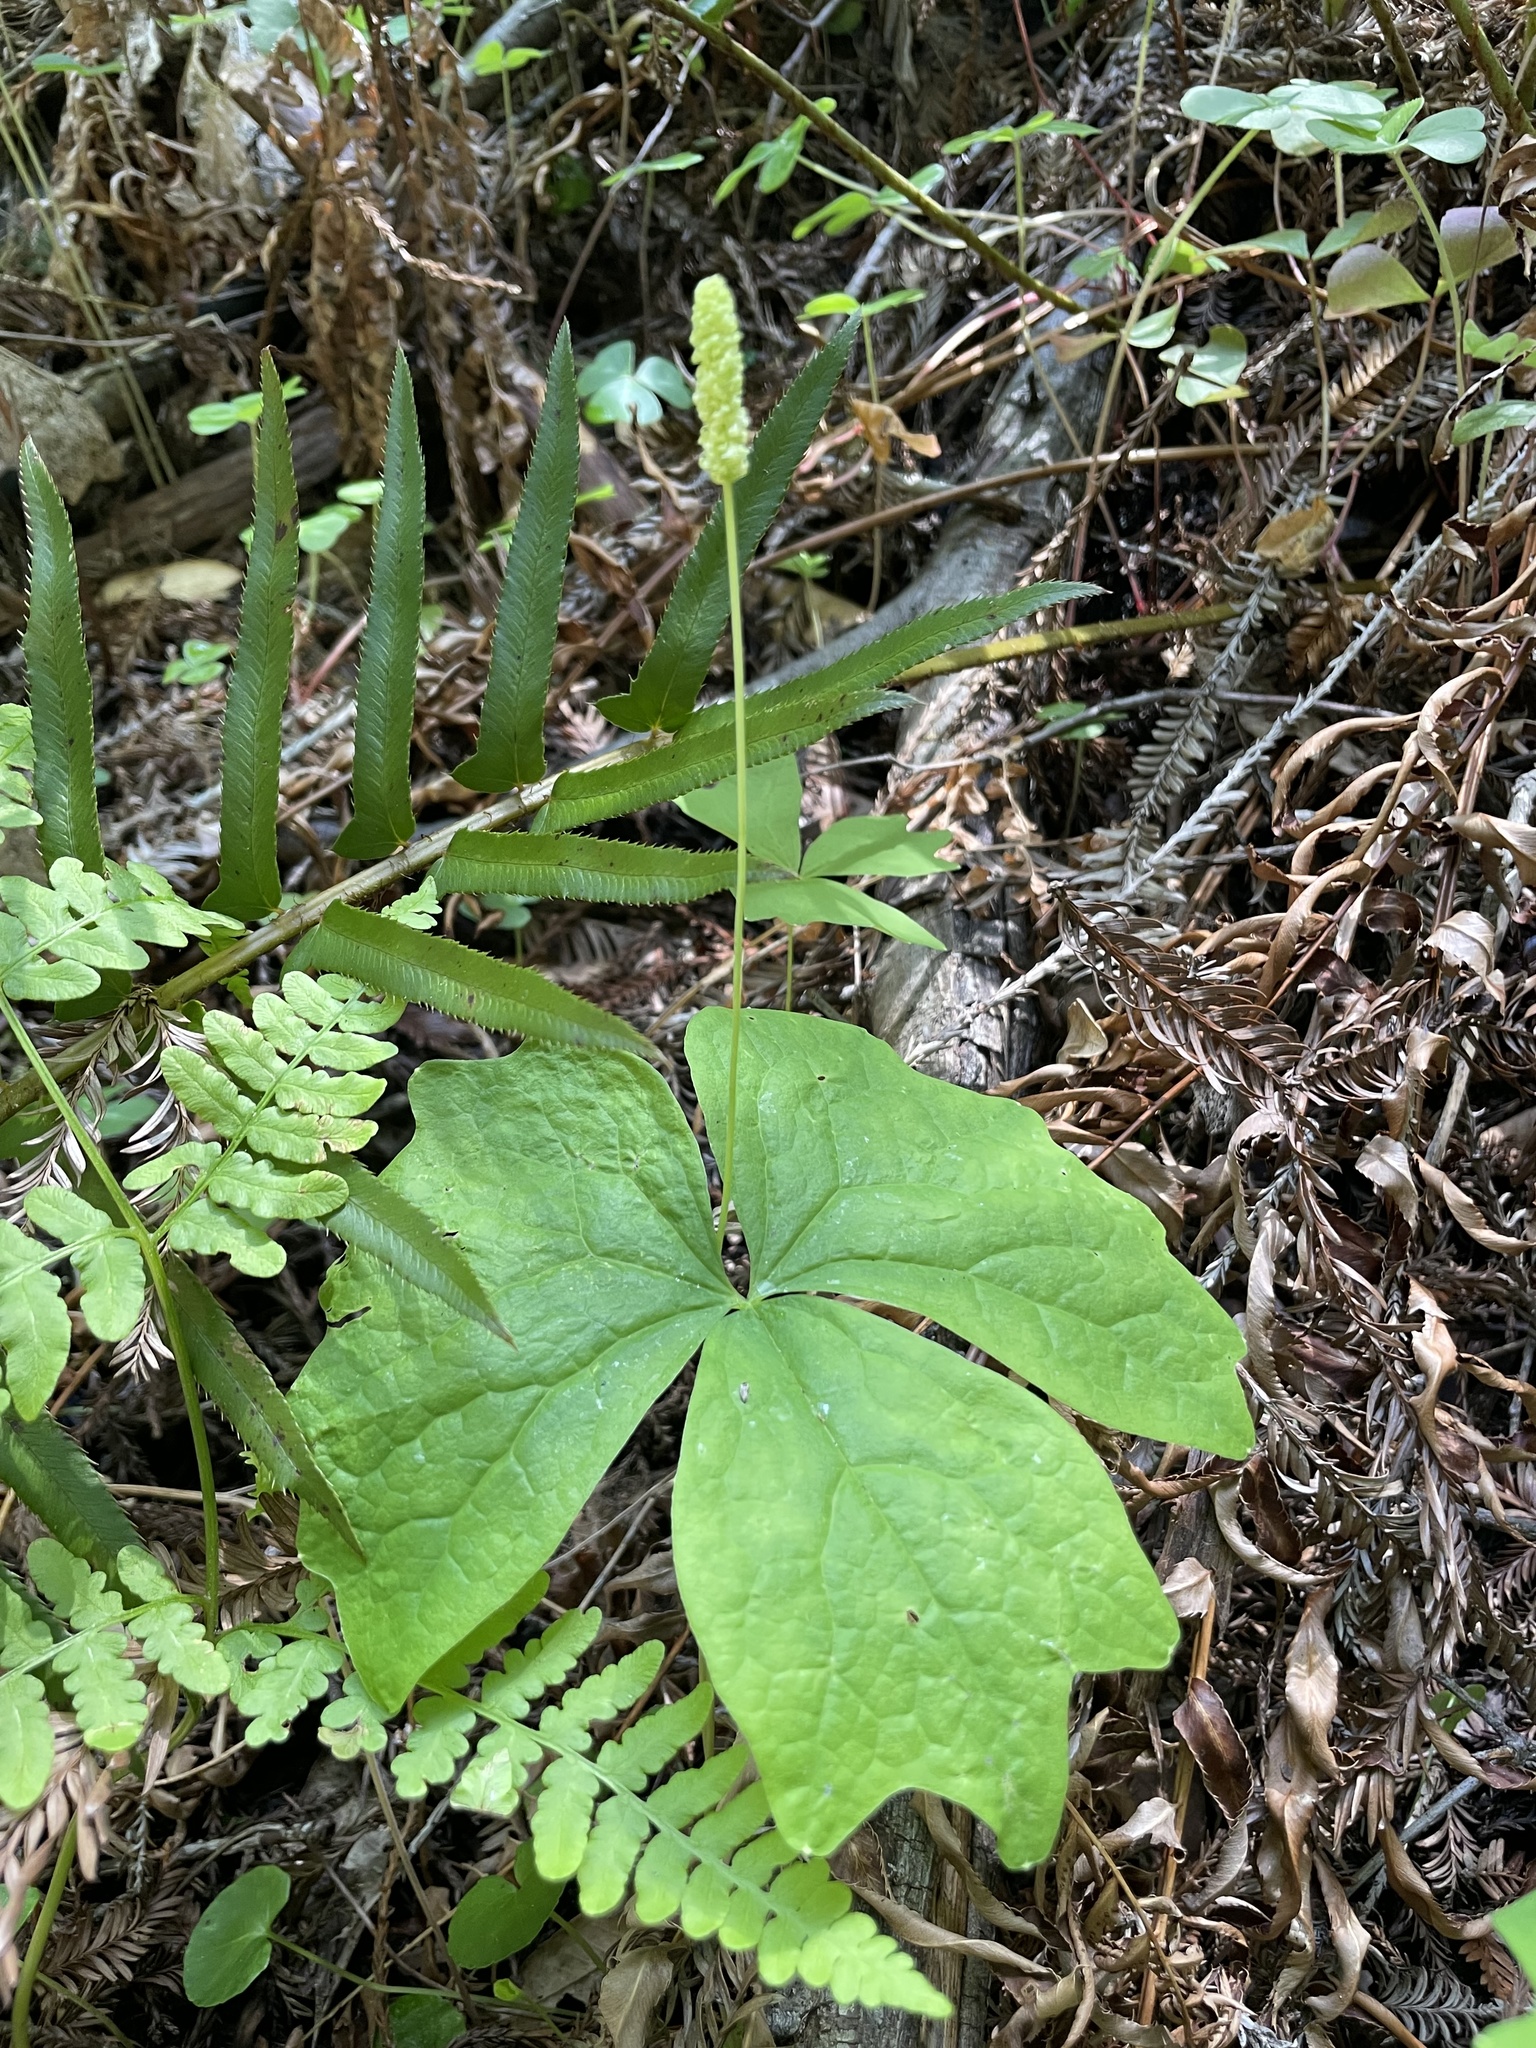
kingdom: Plantae
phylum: Tracheophyta
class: Magnoliopsida
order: Ranunculales
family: Berberidaceae
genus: Achlys
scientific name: Achlys triphylla
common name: Vanilla-leaf
